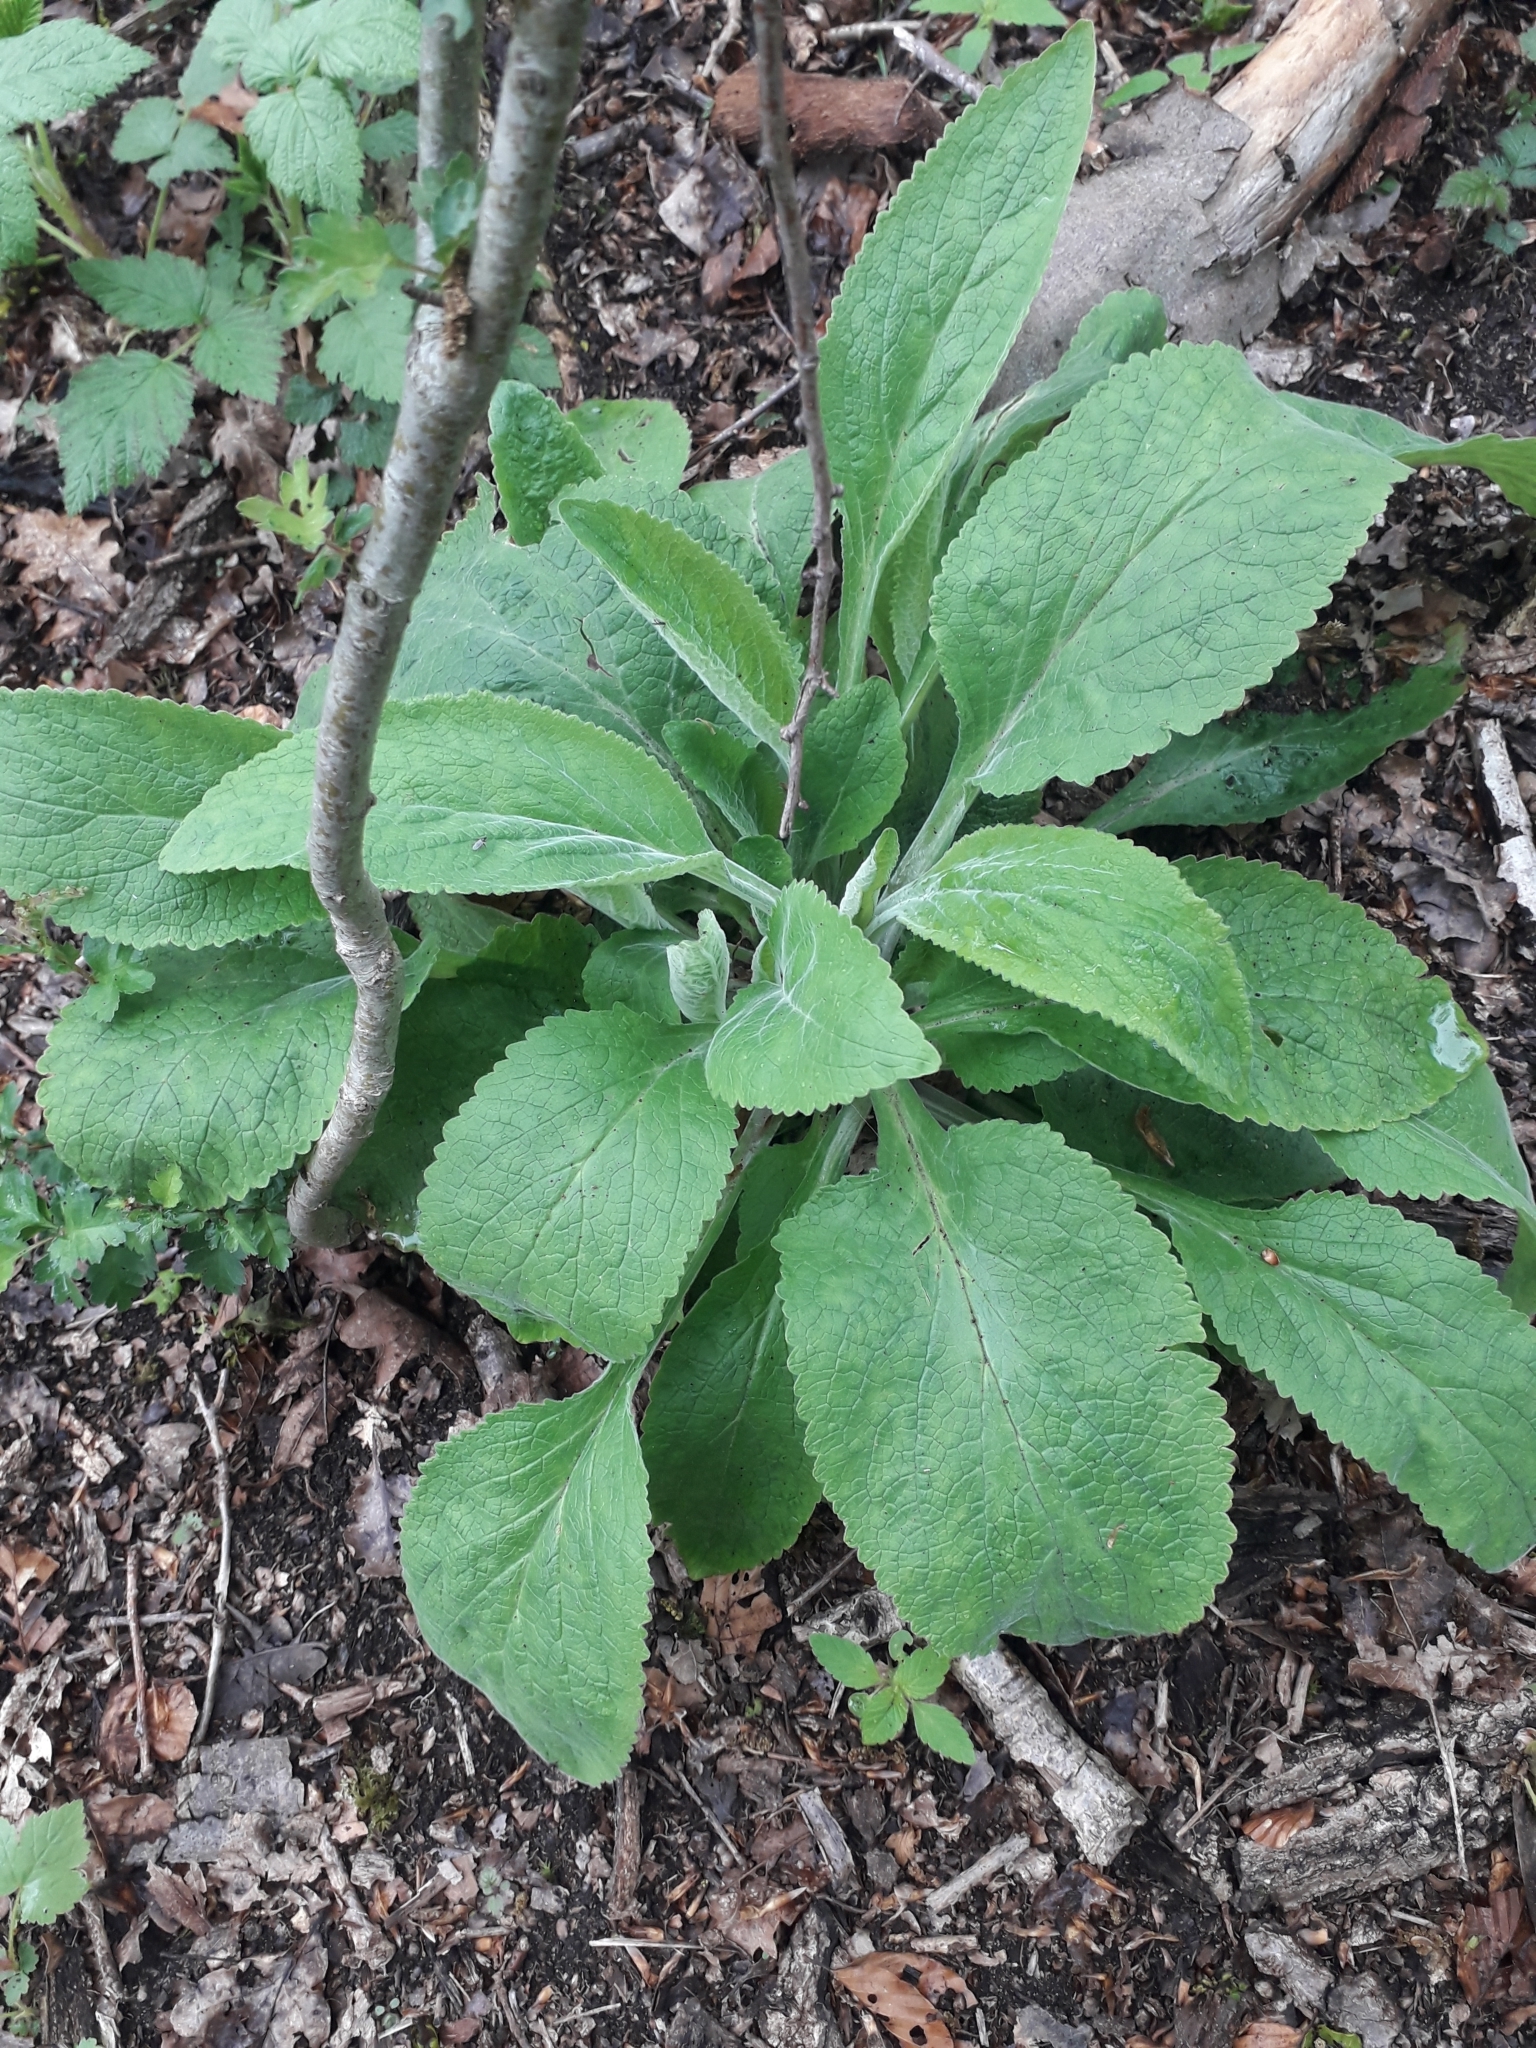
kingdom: Plantae
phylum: Tracheophyta
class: Magnoliopsida
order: Lamiales
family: Plantaginaceae
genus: Digitalis
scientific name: Digitalis purpurea
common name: Foxglove
